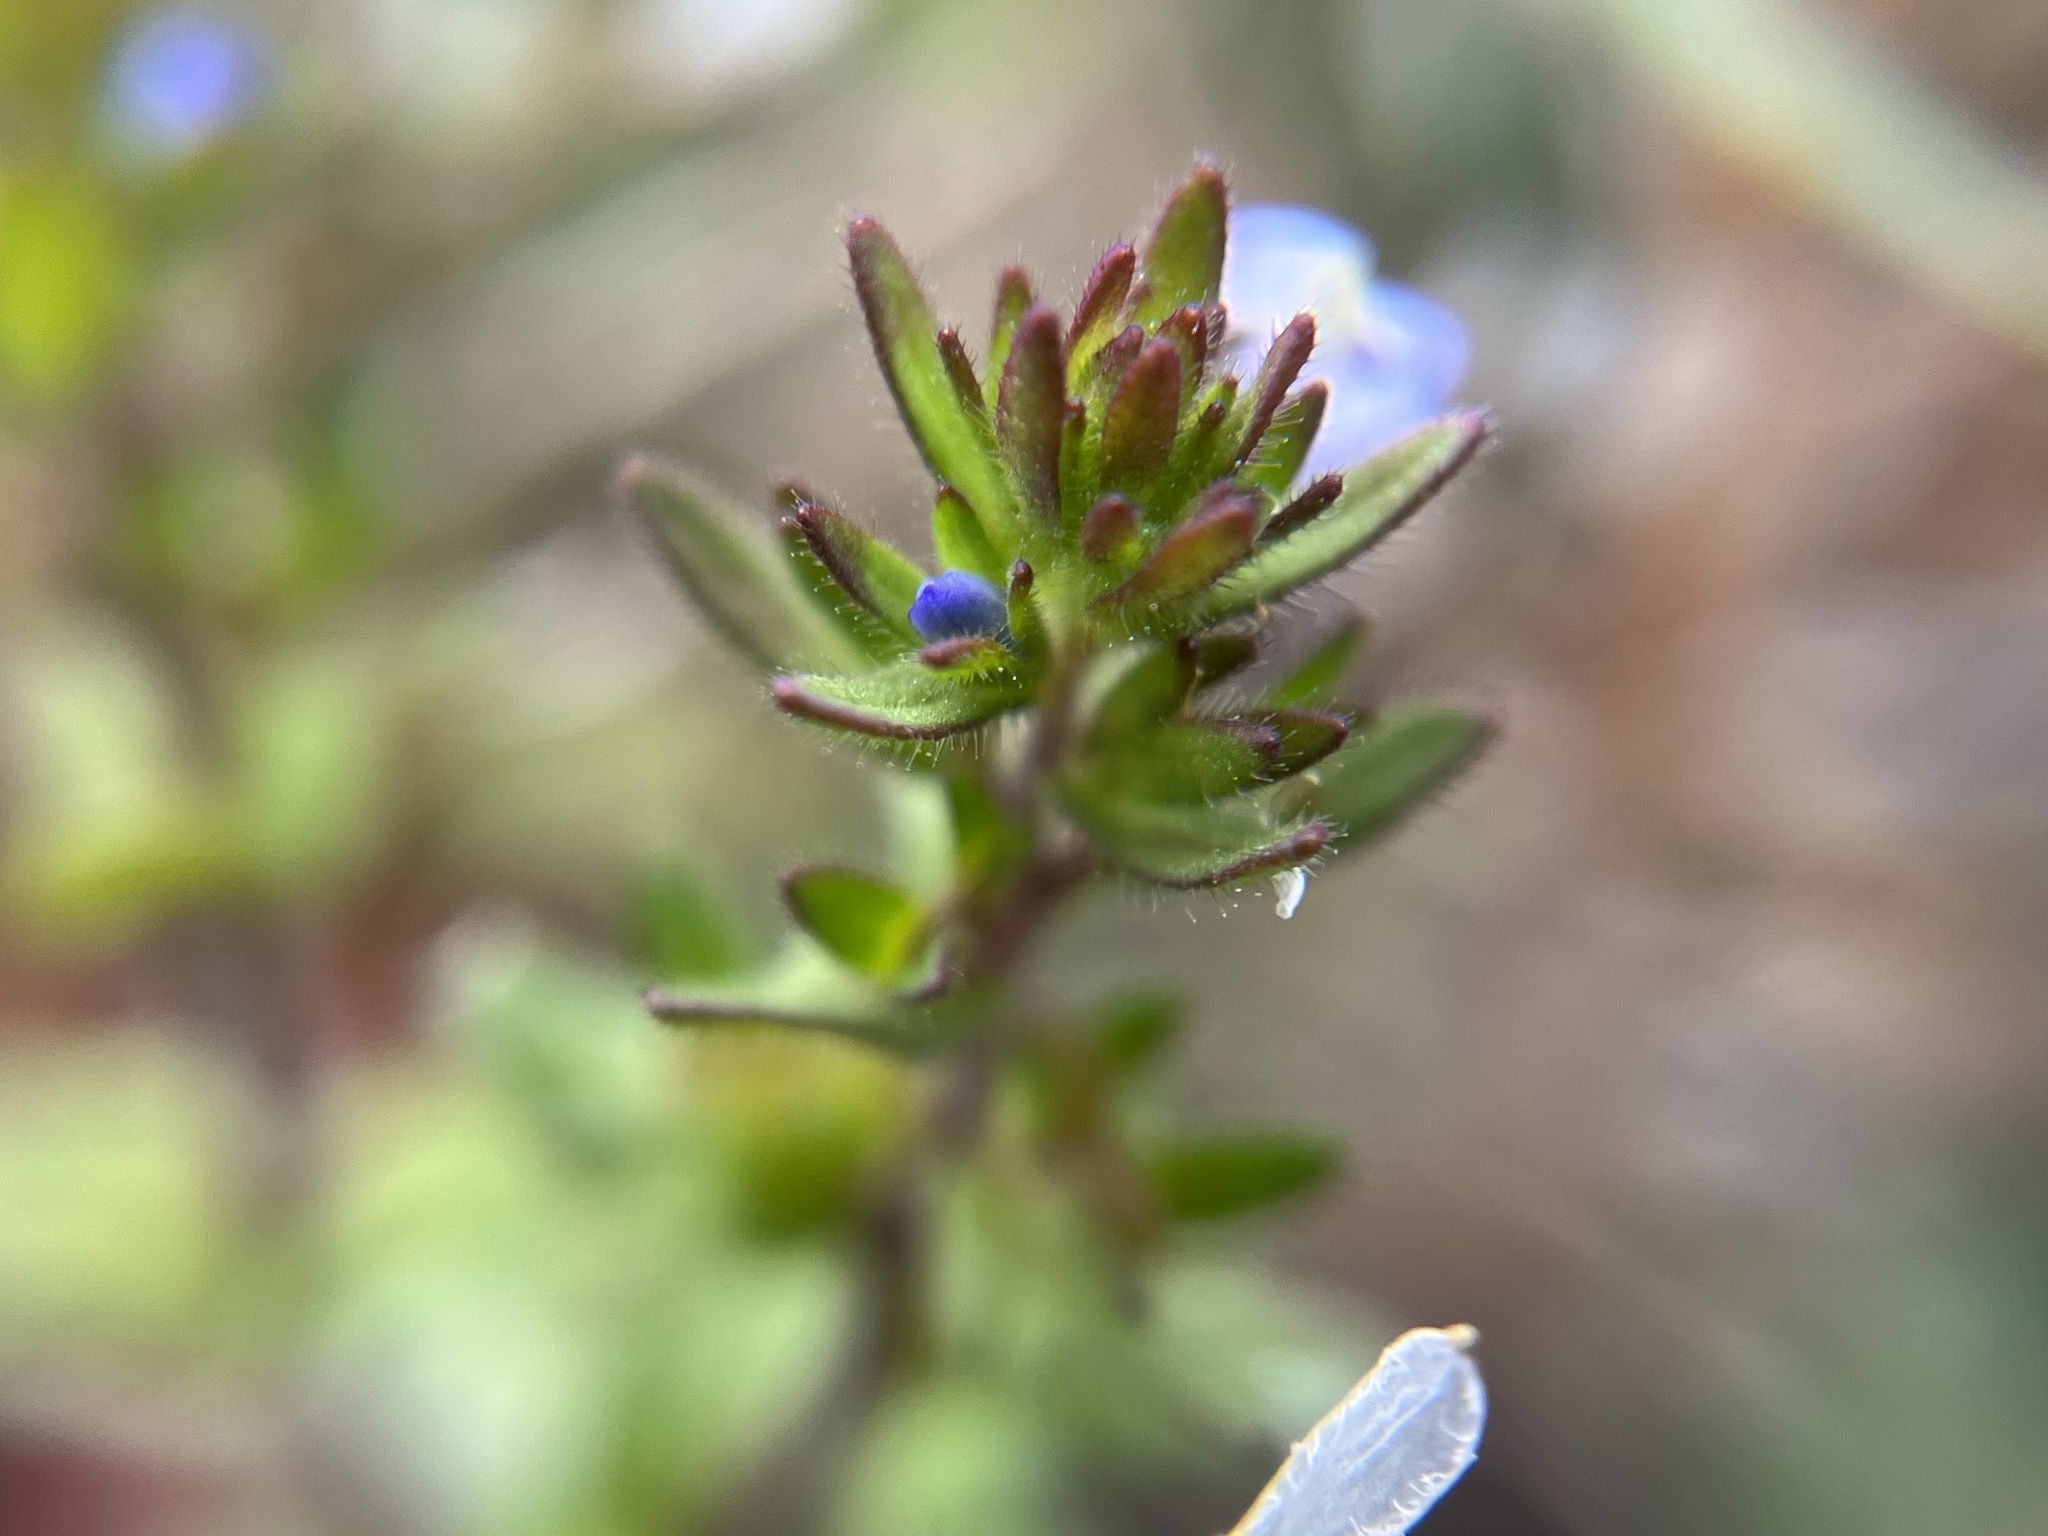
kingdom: Plantae
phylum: Tracheophyta
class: Magnoliopsida
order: Lamiales
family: Plantaginaceae
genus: Veronica
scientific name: Veronica arvensis
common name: Corn speedwell
